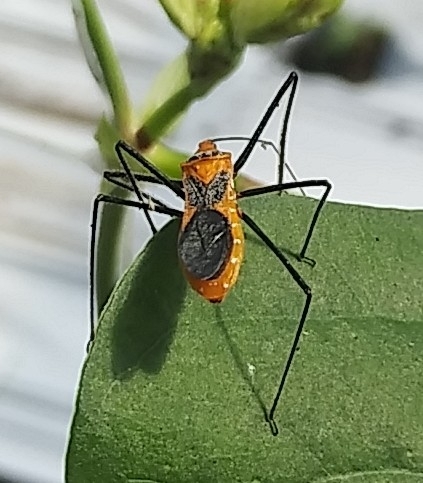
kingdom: Animalia
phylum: Arthropoda
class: Insecta
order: Hemiptera
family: Reduviidae
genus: Zelus
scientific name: Zelus longipes
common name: Milkweed assassin bug
